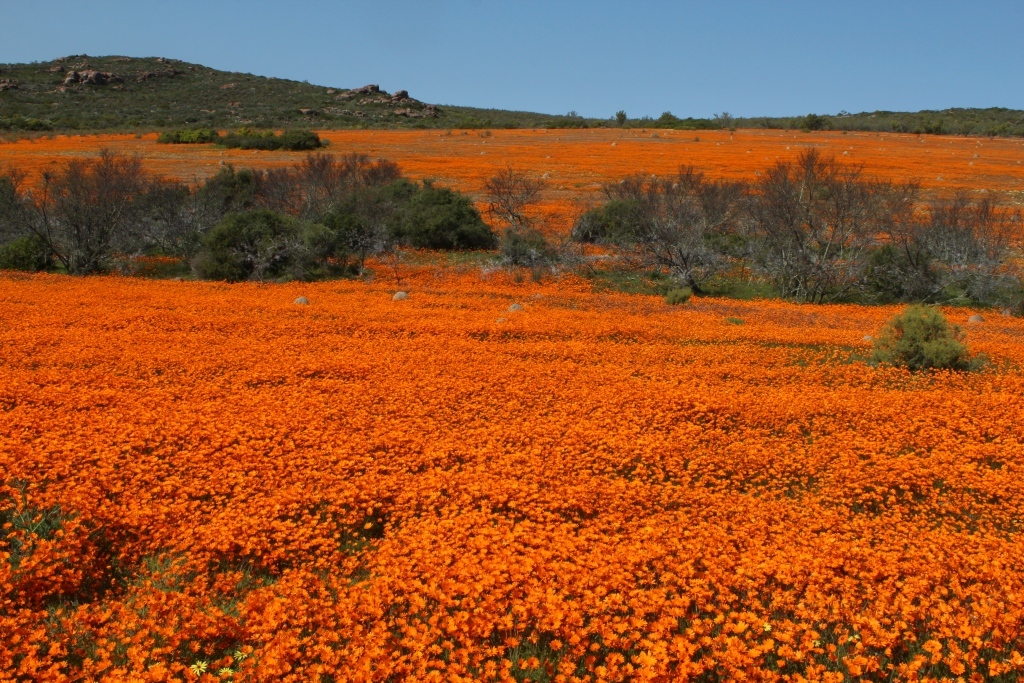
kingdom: Plantae
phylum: Tracheophyta
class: Magnoliopsida
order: Asterales
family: Asteraceae
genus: Dimorphotheca
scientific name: Dimorphotheca sinuata
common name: Glandular cape marigold
